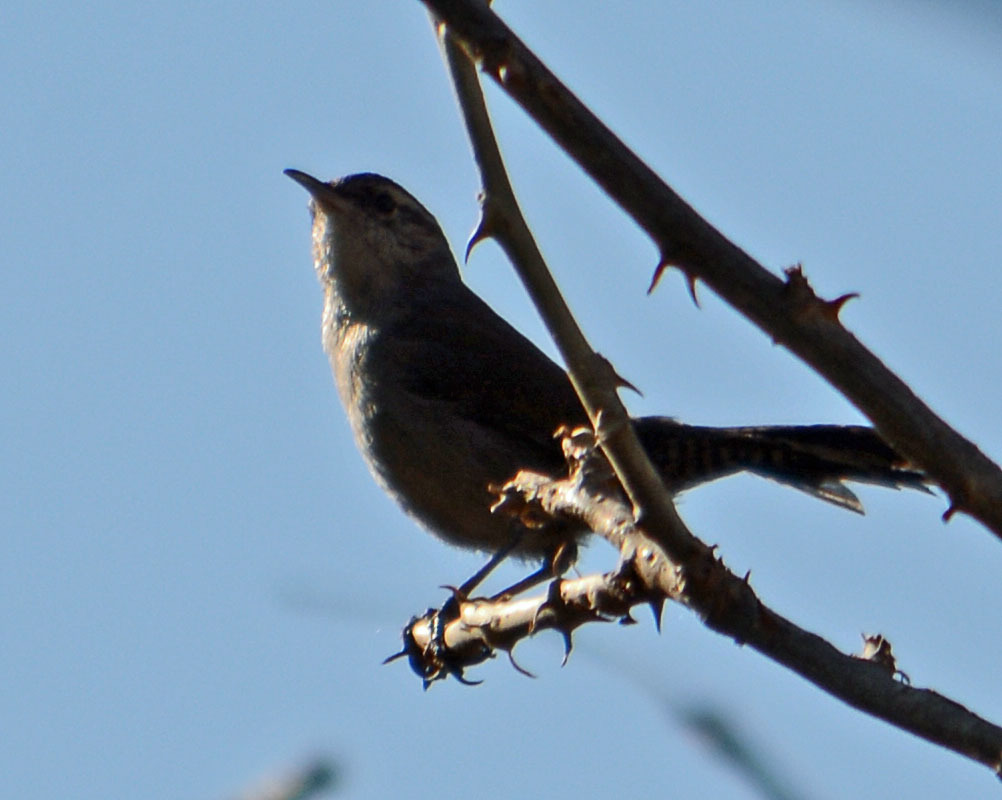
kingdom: Animalia
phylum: Chordata
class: Aves
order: Passeriformes
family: Troglodytidae
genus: Thryomanes
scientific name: Thryomanes bewickii
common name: Bewick's wren
